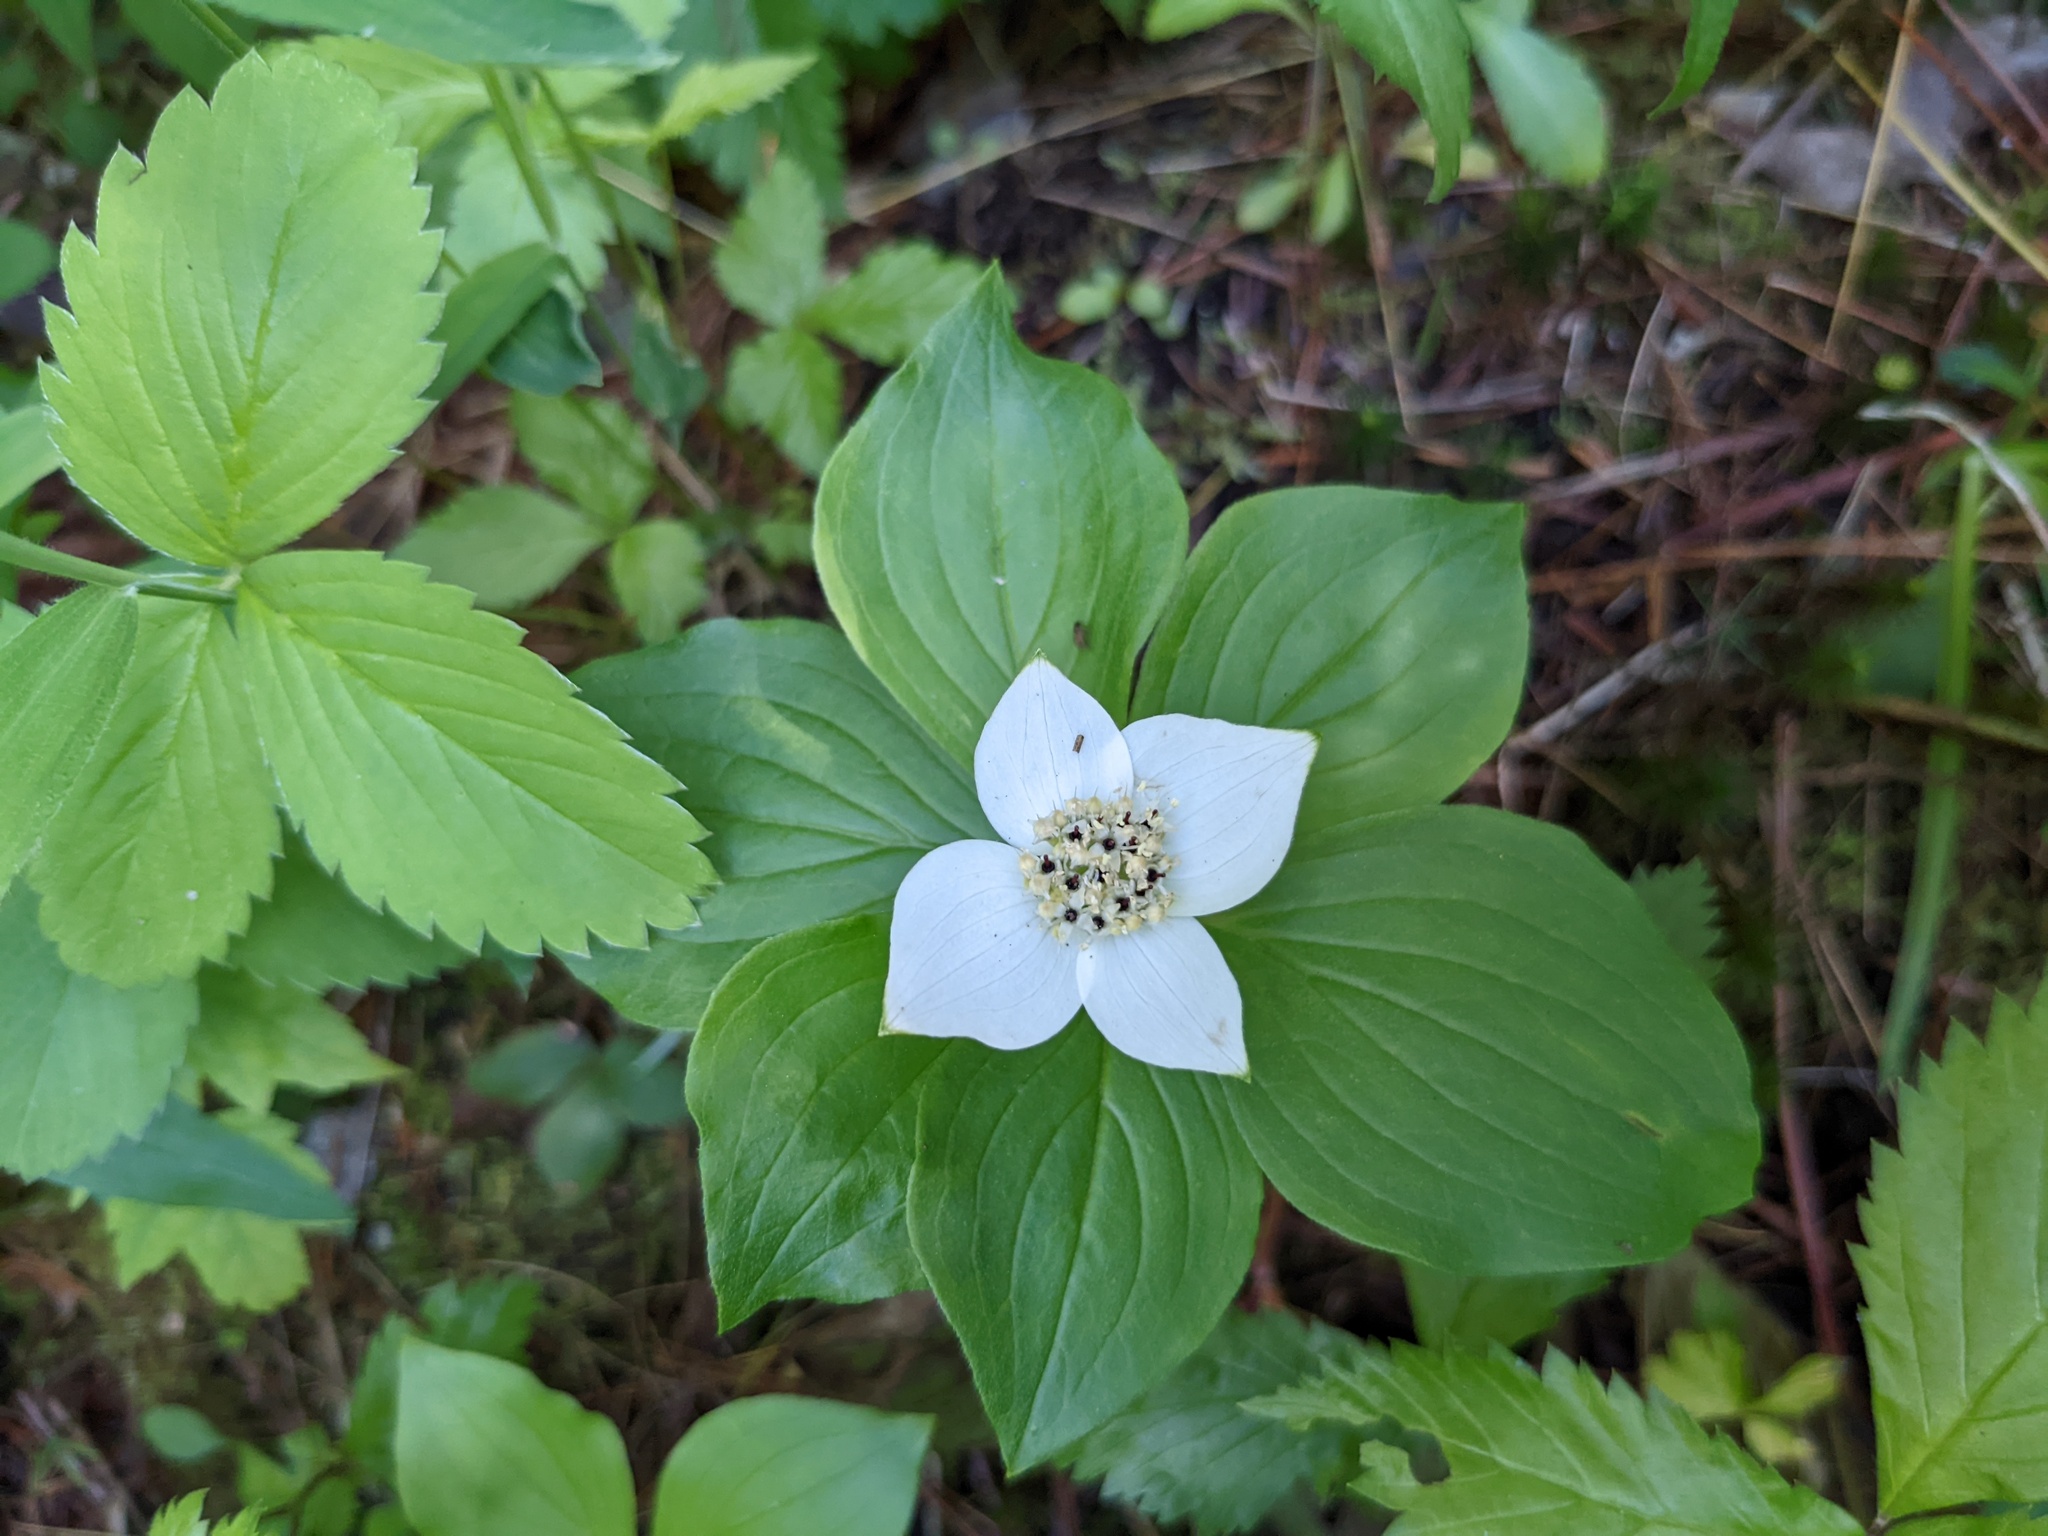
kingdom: Plantae
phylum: Tracheophyta
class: Magnoliopsida
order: Cornales
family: Cornaceae
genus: Cornus
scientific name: Cornus canadensis
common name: Creeping dogwood
